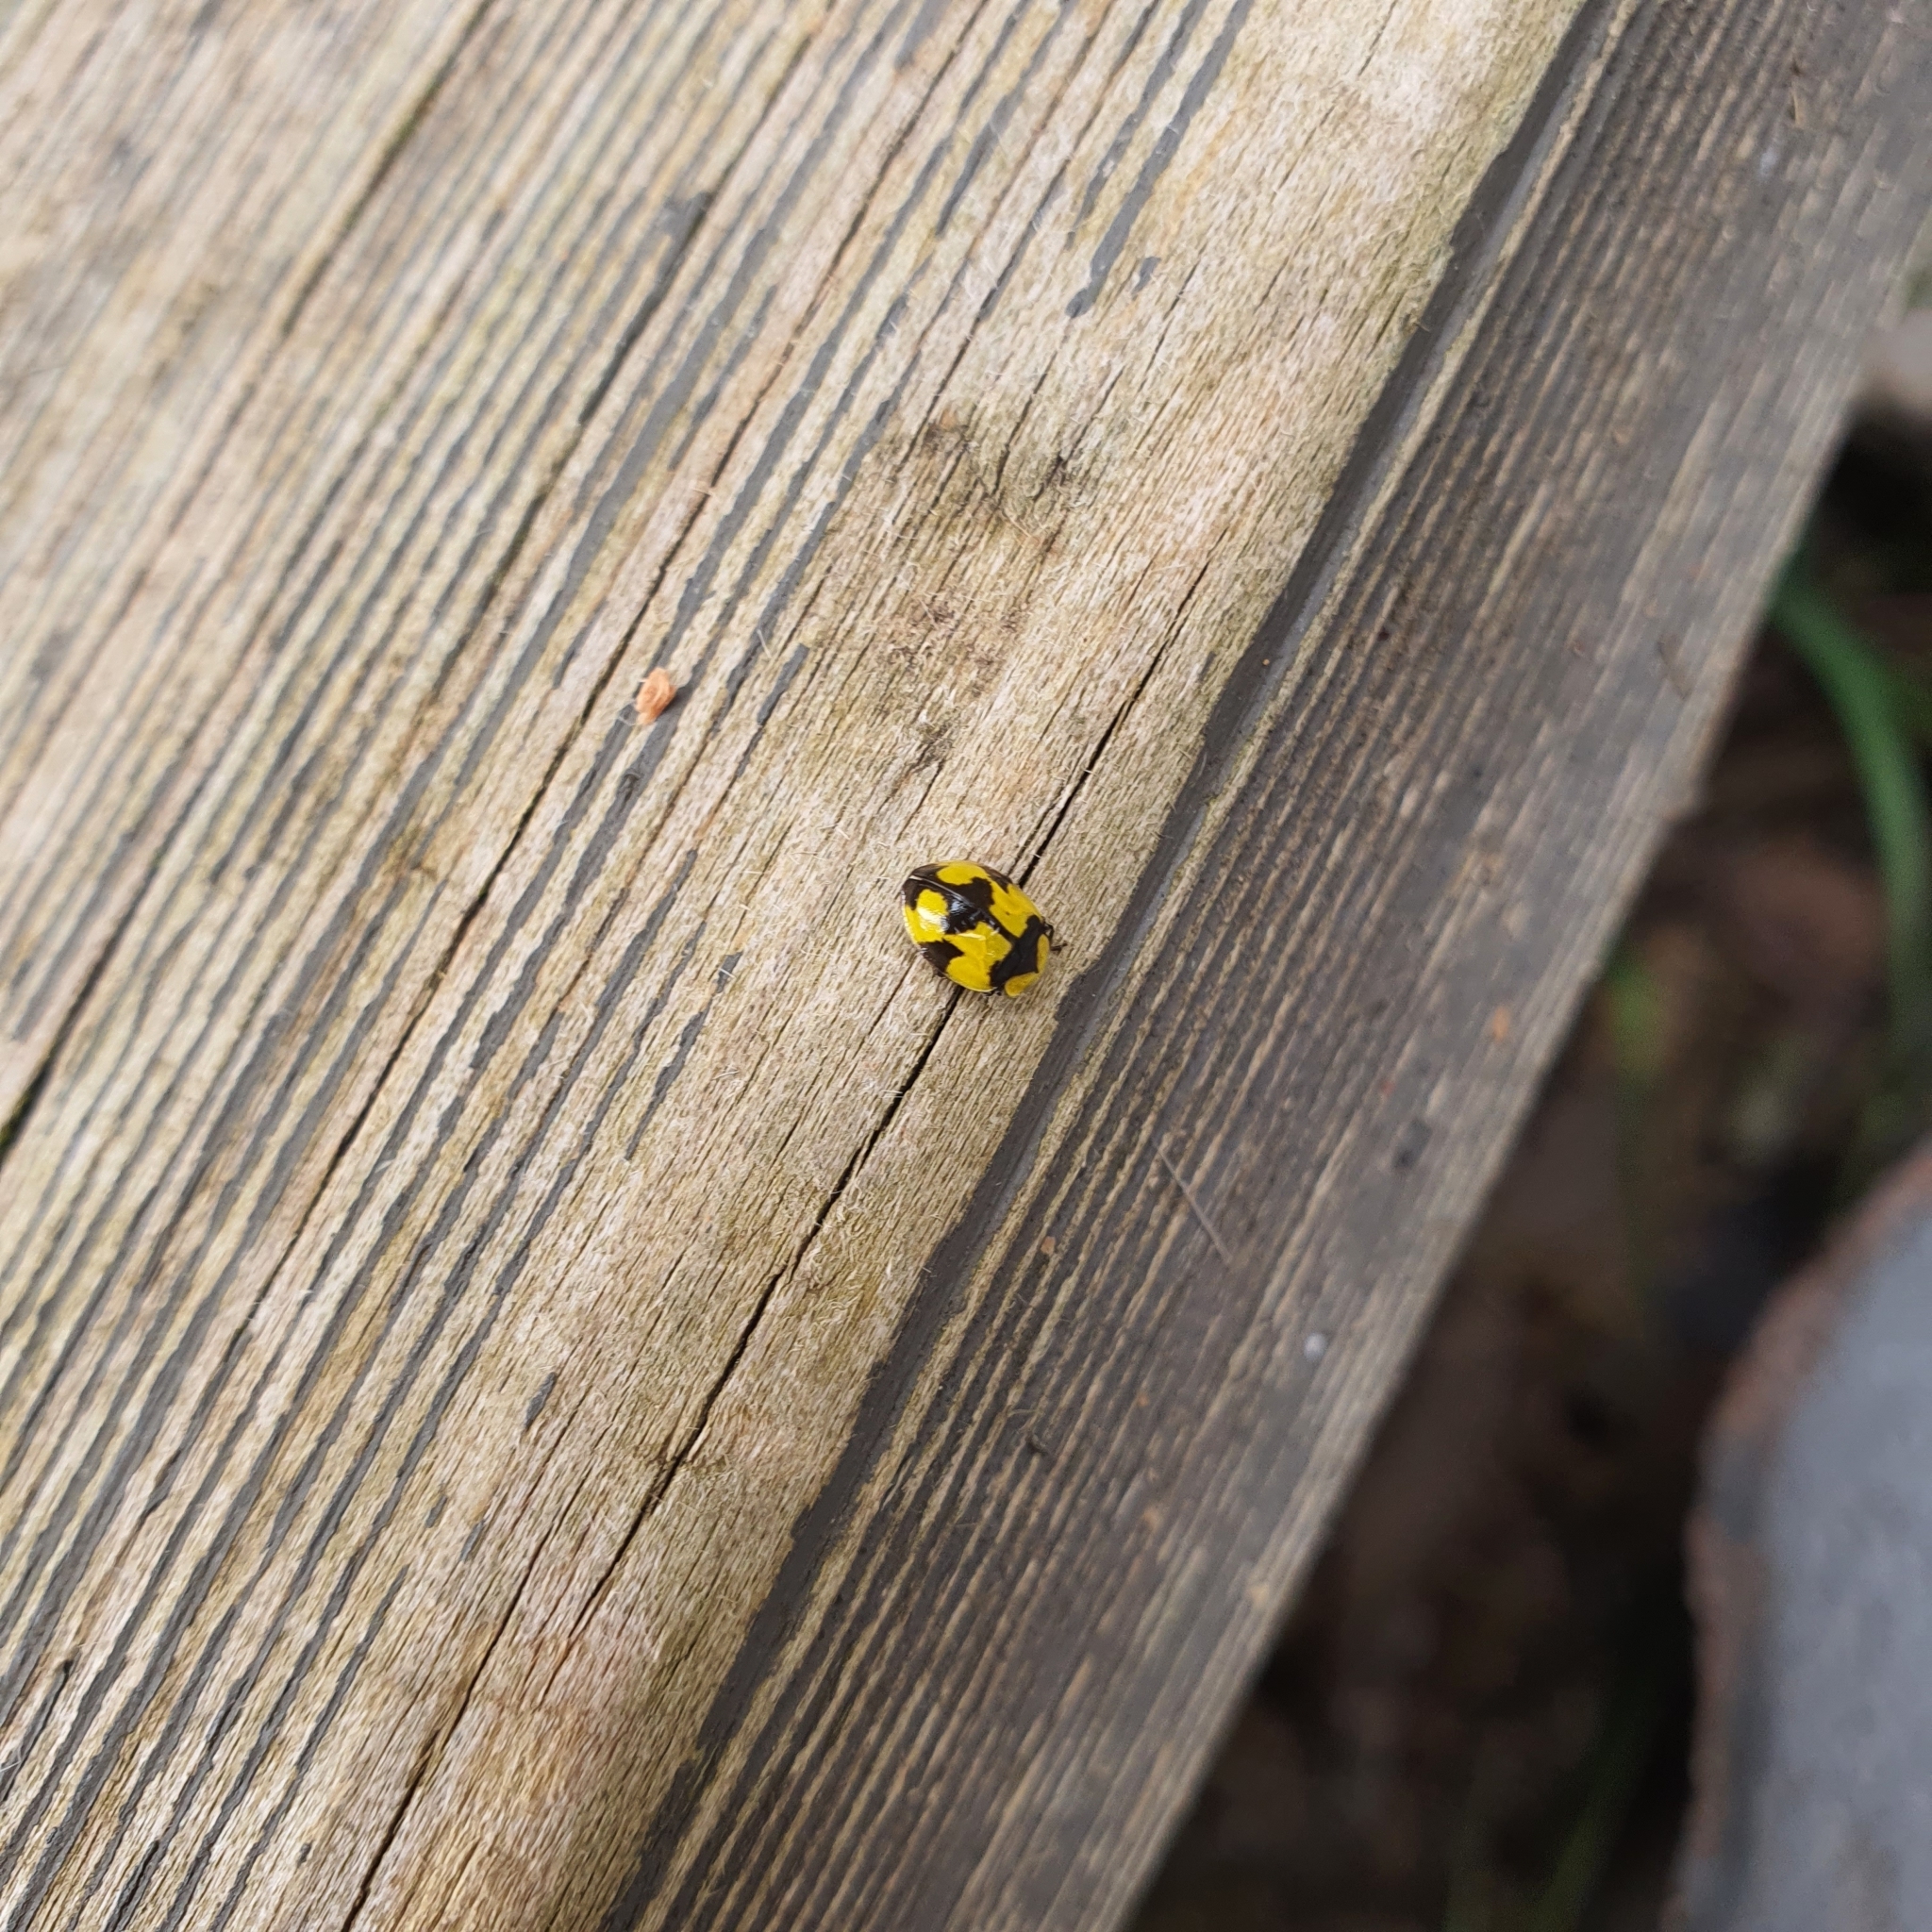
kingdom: Animalia
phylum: Arthropoda
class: Insecta
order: Coleoptera
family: Coccinellidae
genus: Illeis
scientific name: Illeis galbula
